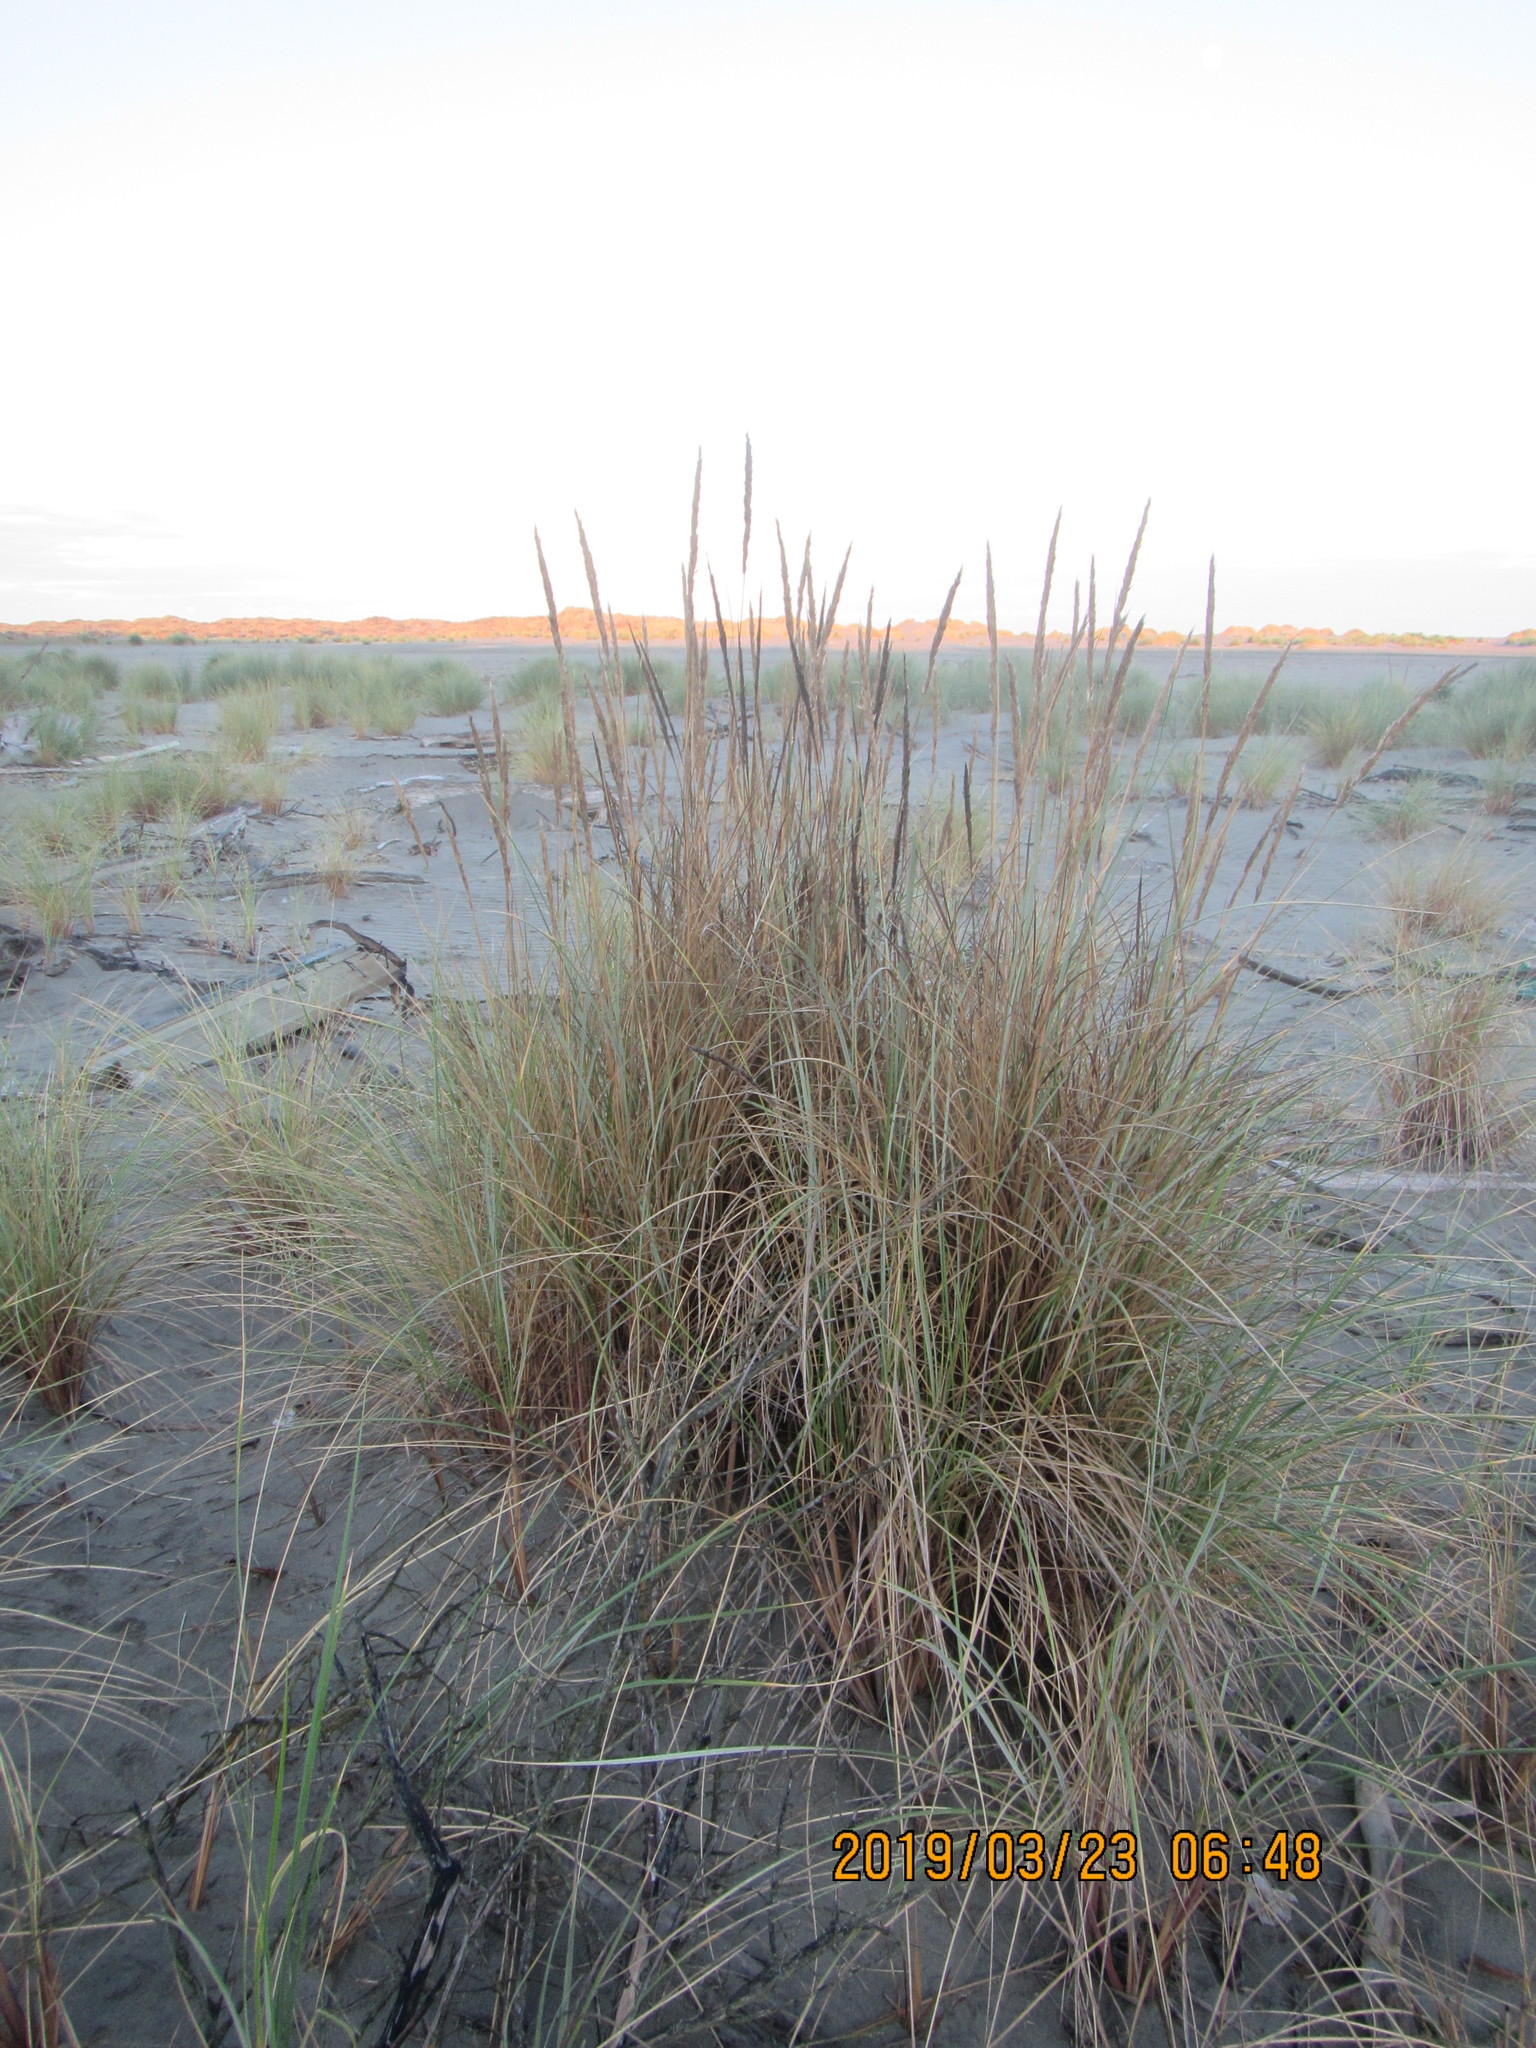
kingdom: Plantae
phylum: Tracheophyta
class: Liliopsida
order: Poales
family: Poaceae
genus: Calamagrostis
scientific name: Calamagrostis arenaria
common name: European beachgrass
